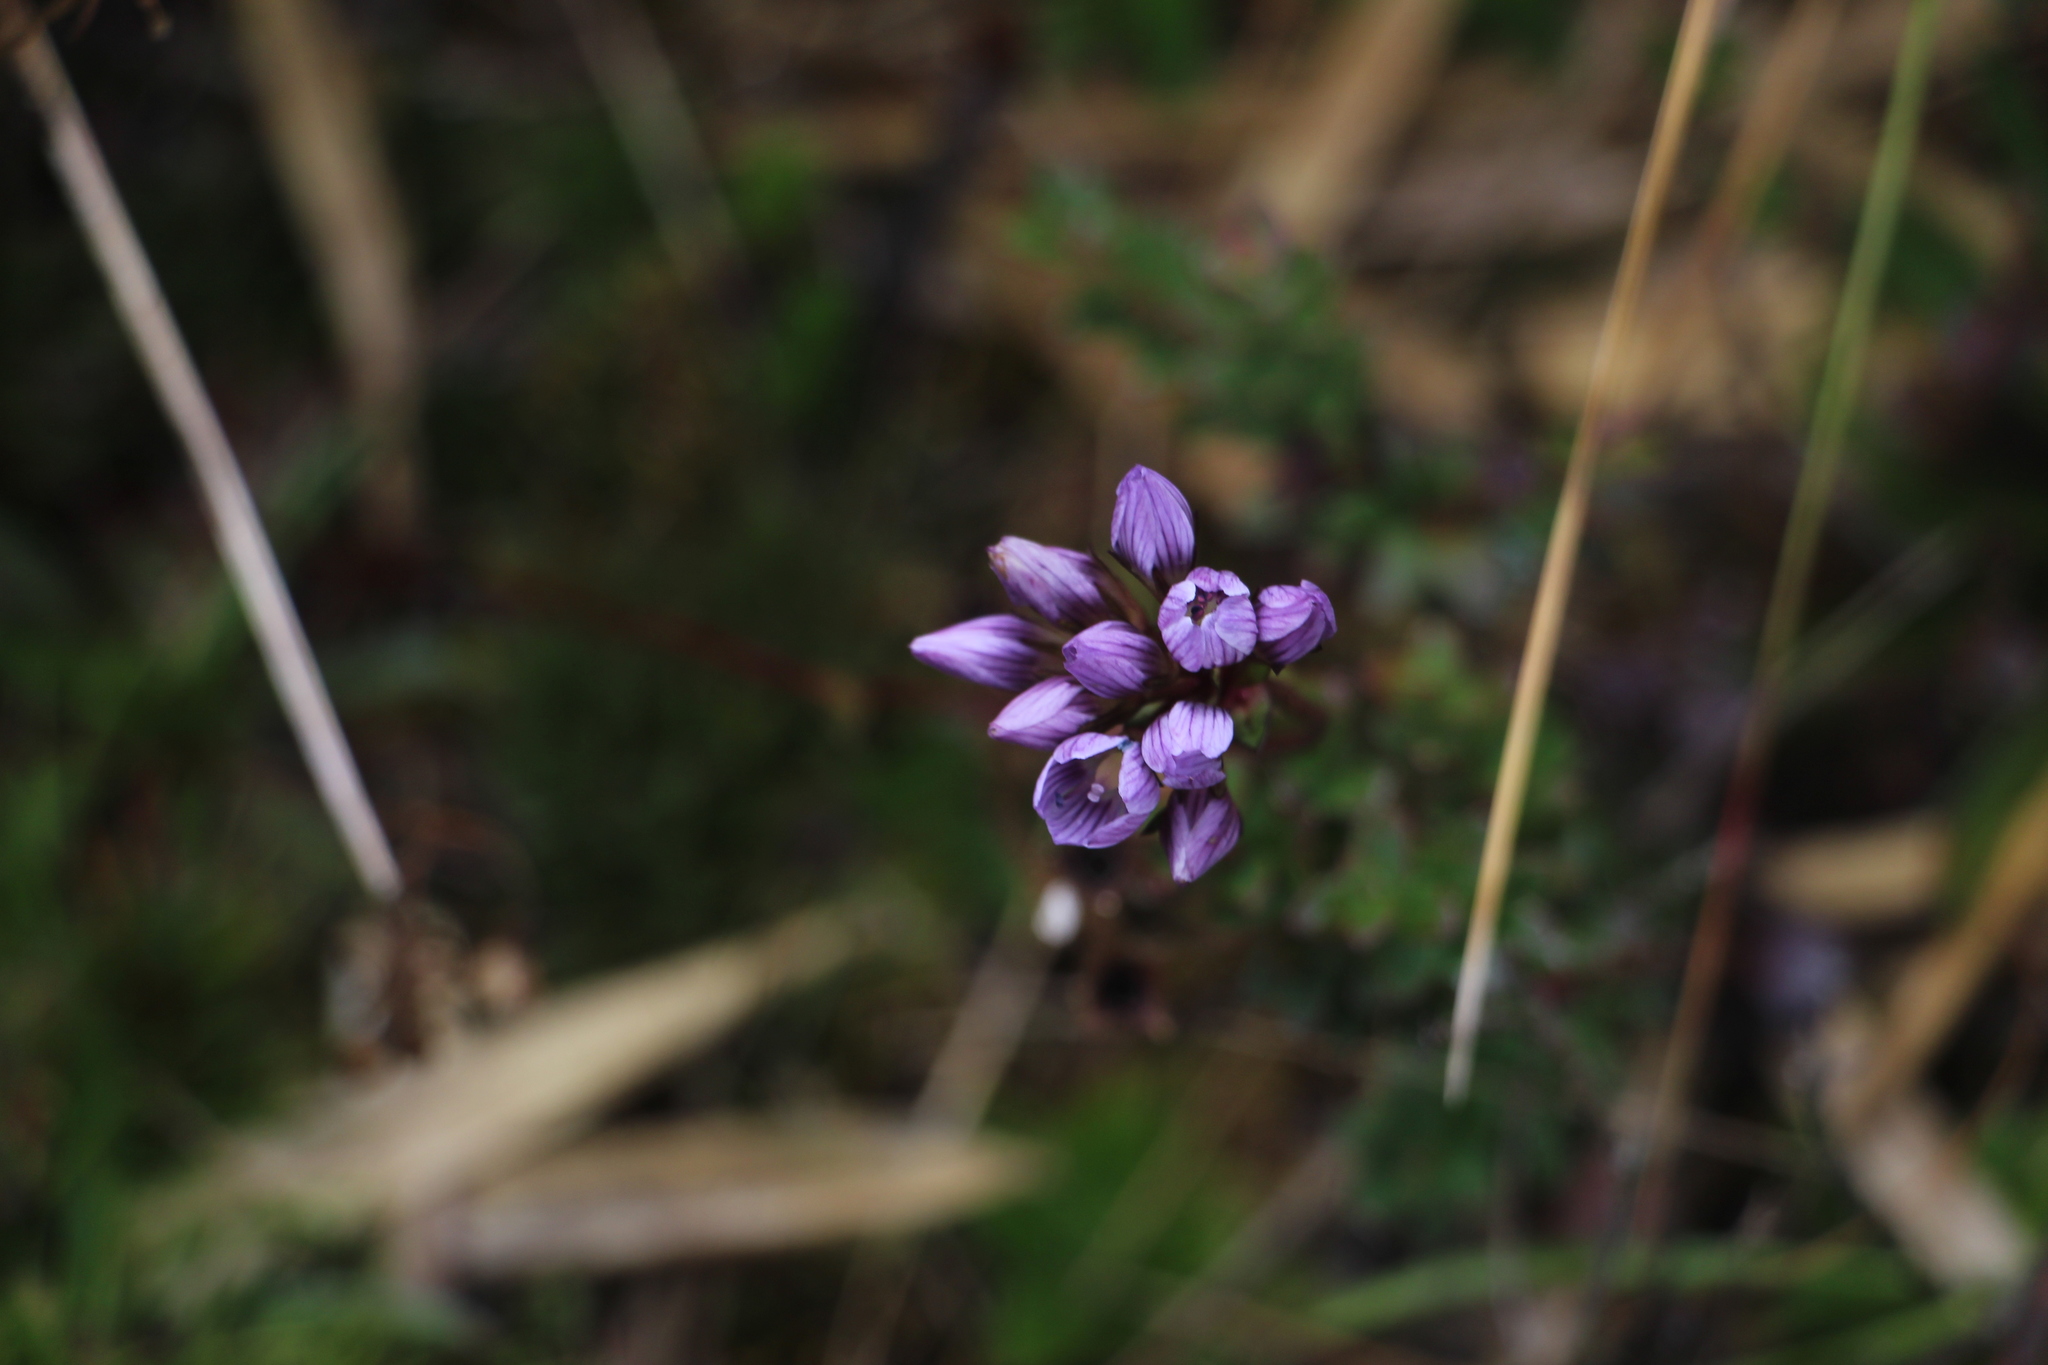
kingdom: Plantae
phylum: Tracheophyta
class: Magnoliopsida
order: Gentianales
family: Gentianaceae
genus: Gentianella
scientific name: Gentianella corymbosa
